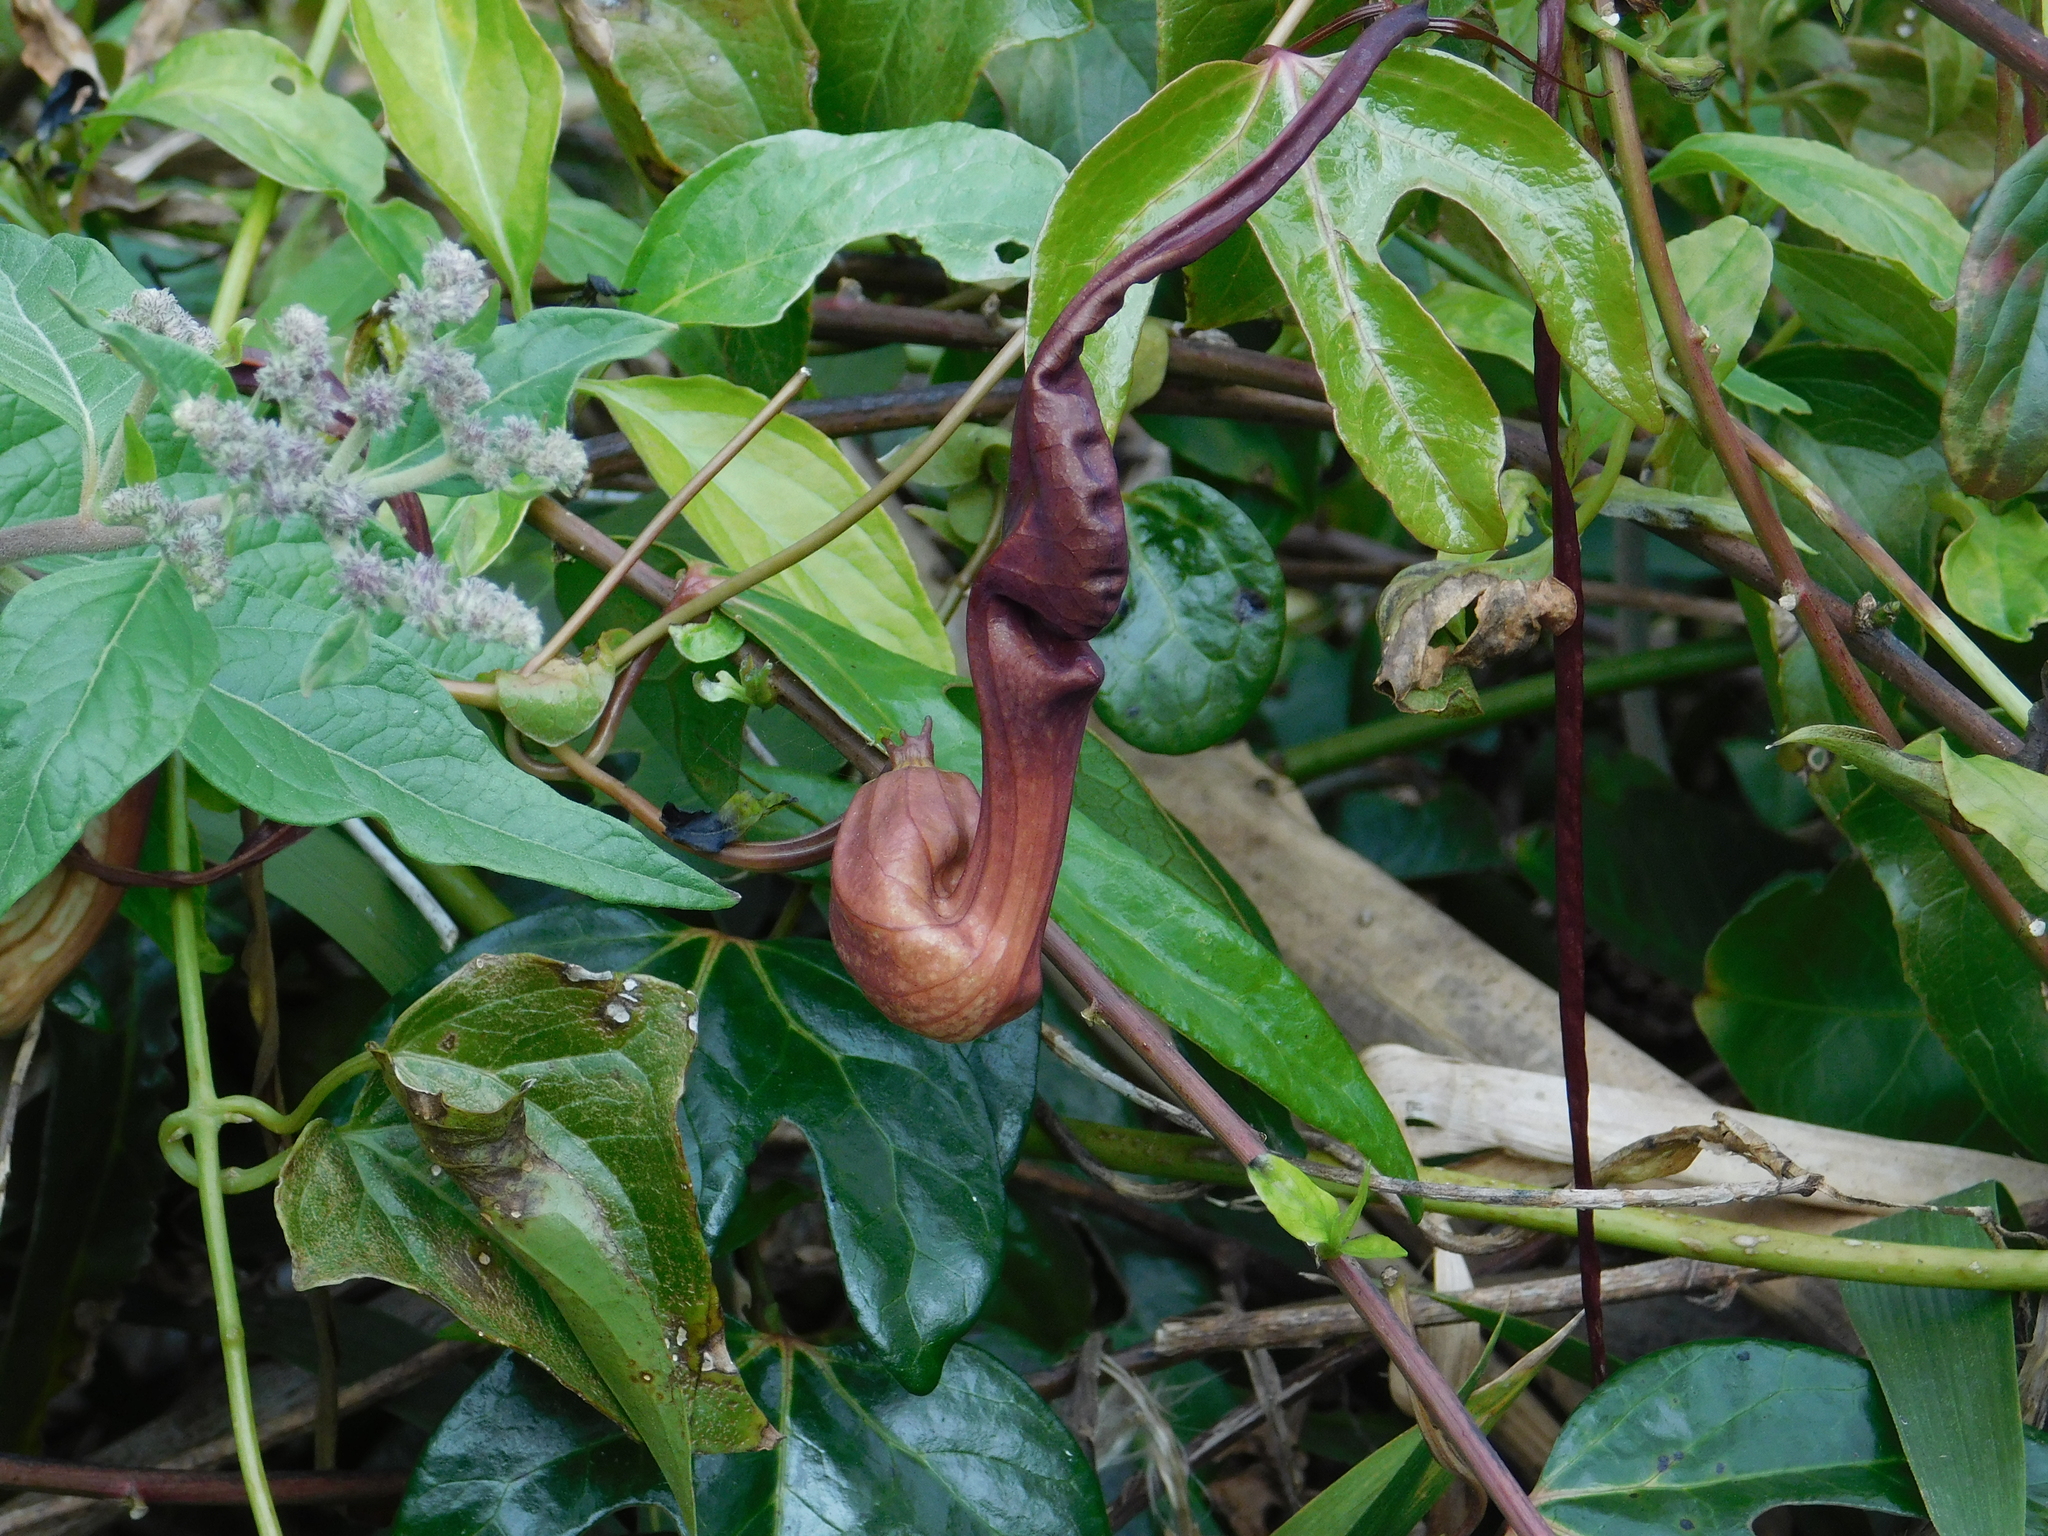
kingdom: Plantae
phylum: Tracheophyta
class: Magnoliopsida
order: Piperales
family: Aristolochiaceae
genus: Aristolochia
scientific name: Aristolochia macroura
